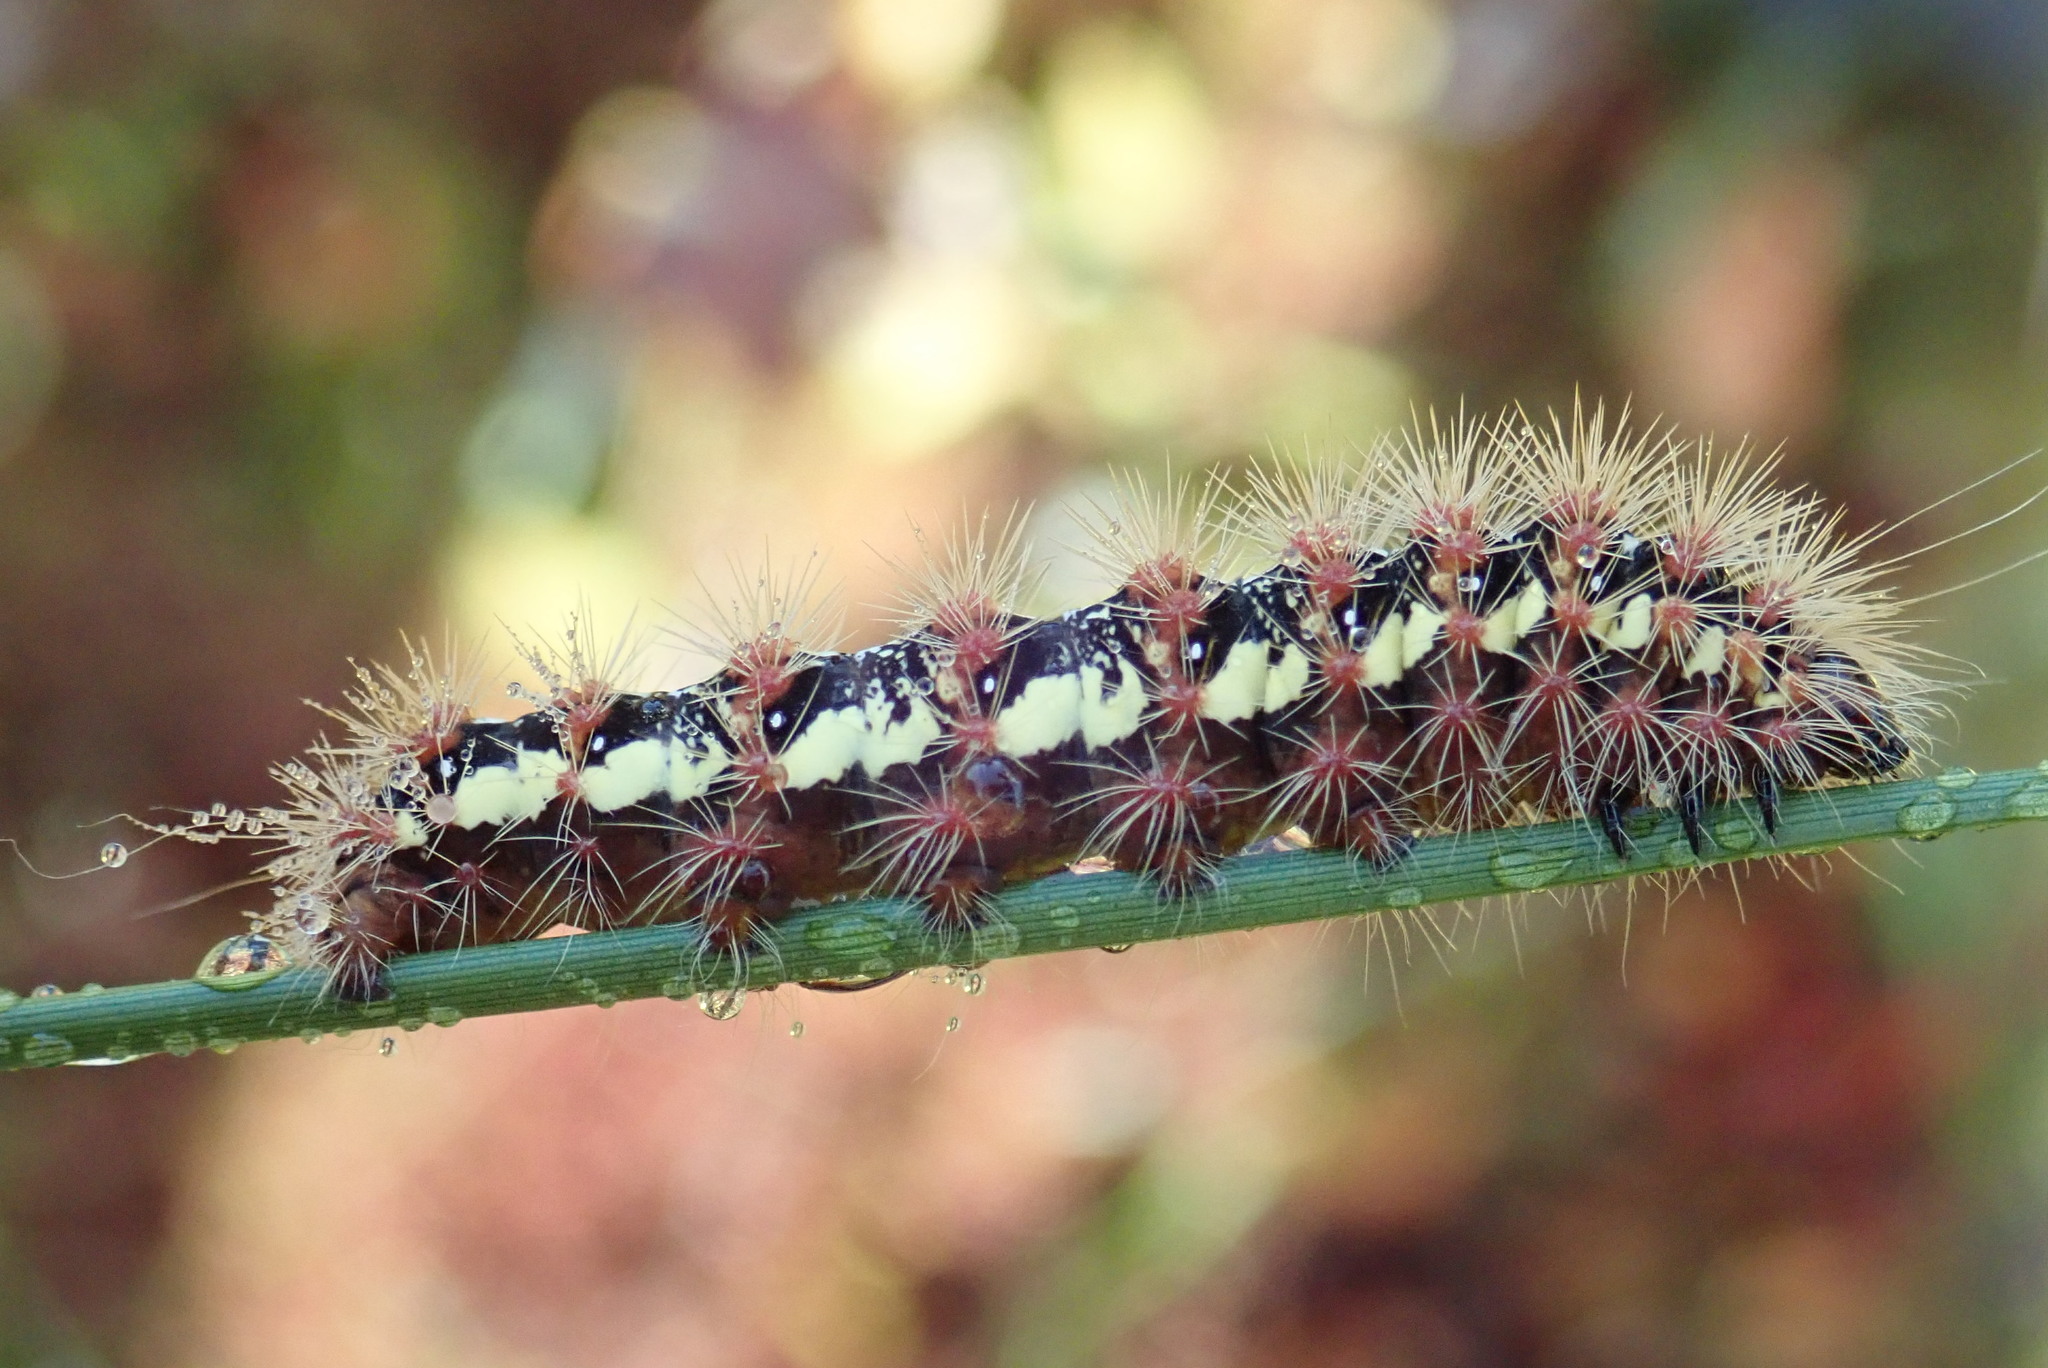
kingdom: Animalia
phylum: Arthropoda
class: Insecta
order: Lepidoptera
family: Noctuidae
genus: Acronicta
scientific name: Acronicta oblinita
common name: Smeared dagger
